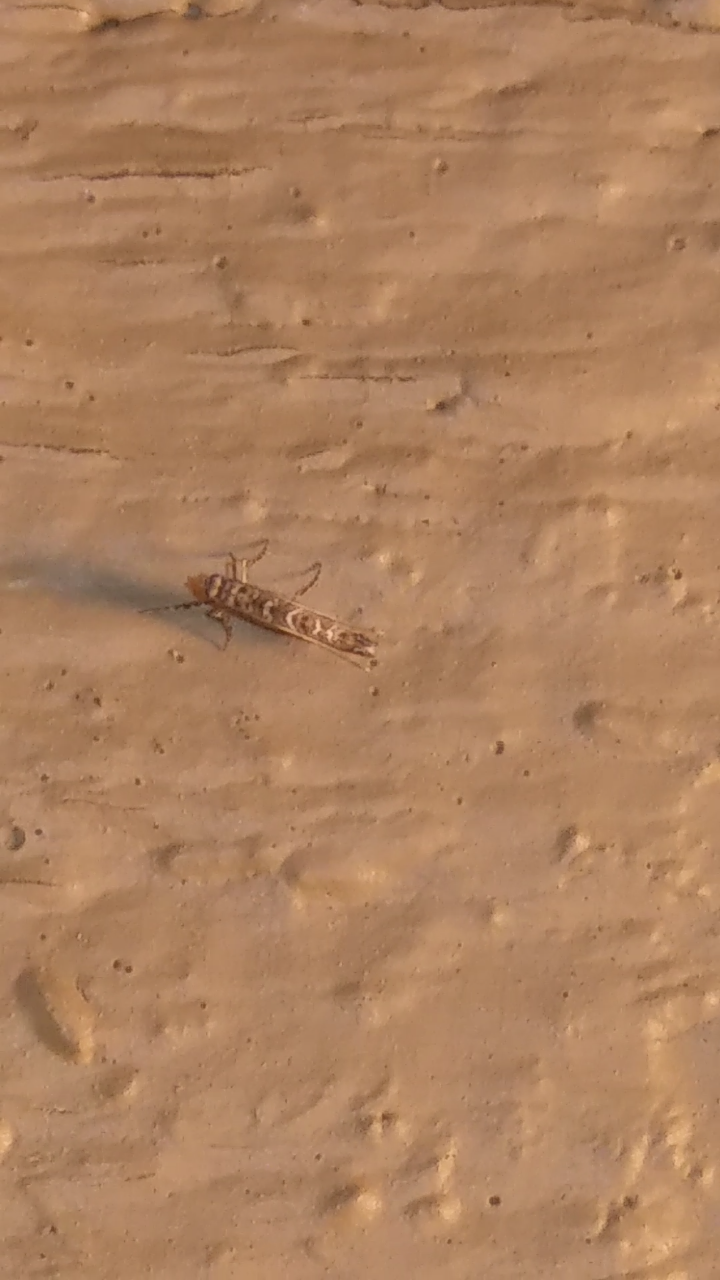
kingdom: Animalia
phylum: Arthropoda
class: Insecta
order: Lepidoptera
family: Gracillariidae
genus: Neurobathra
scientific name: Neurobathra strigifinitella
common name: Finite-channeled leafminer moth
